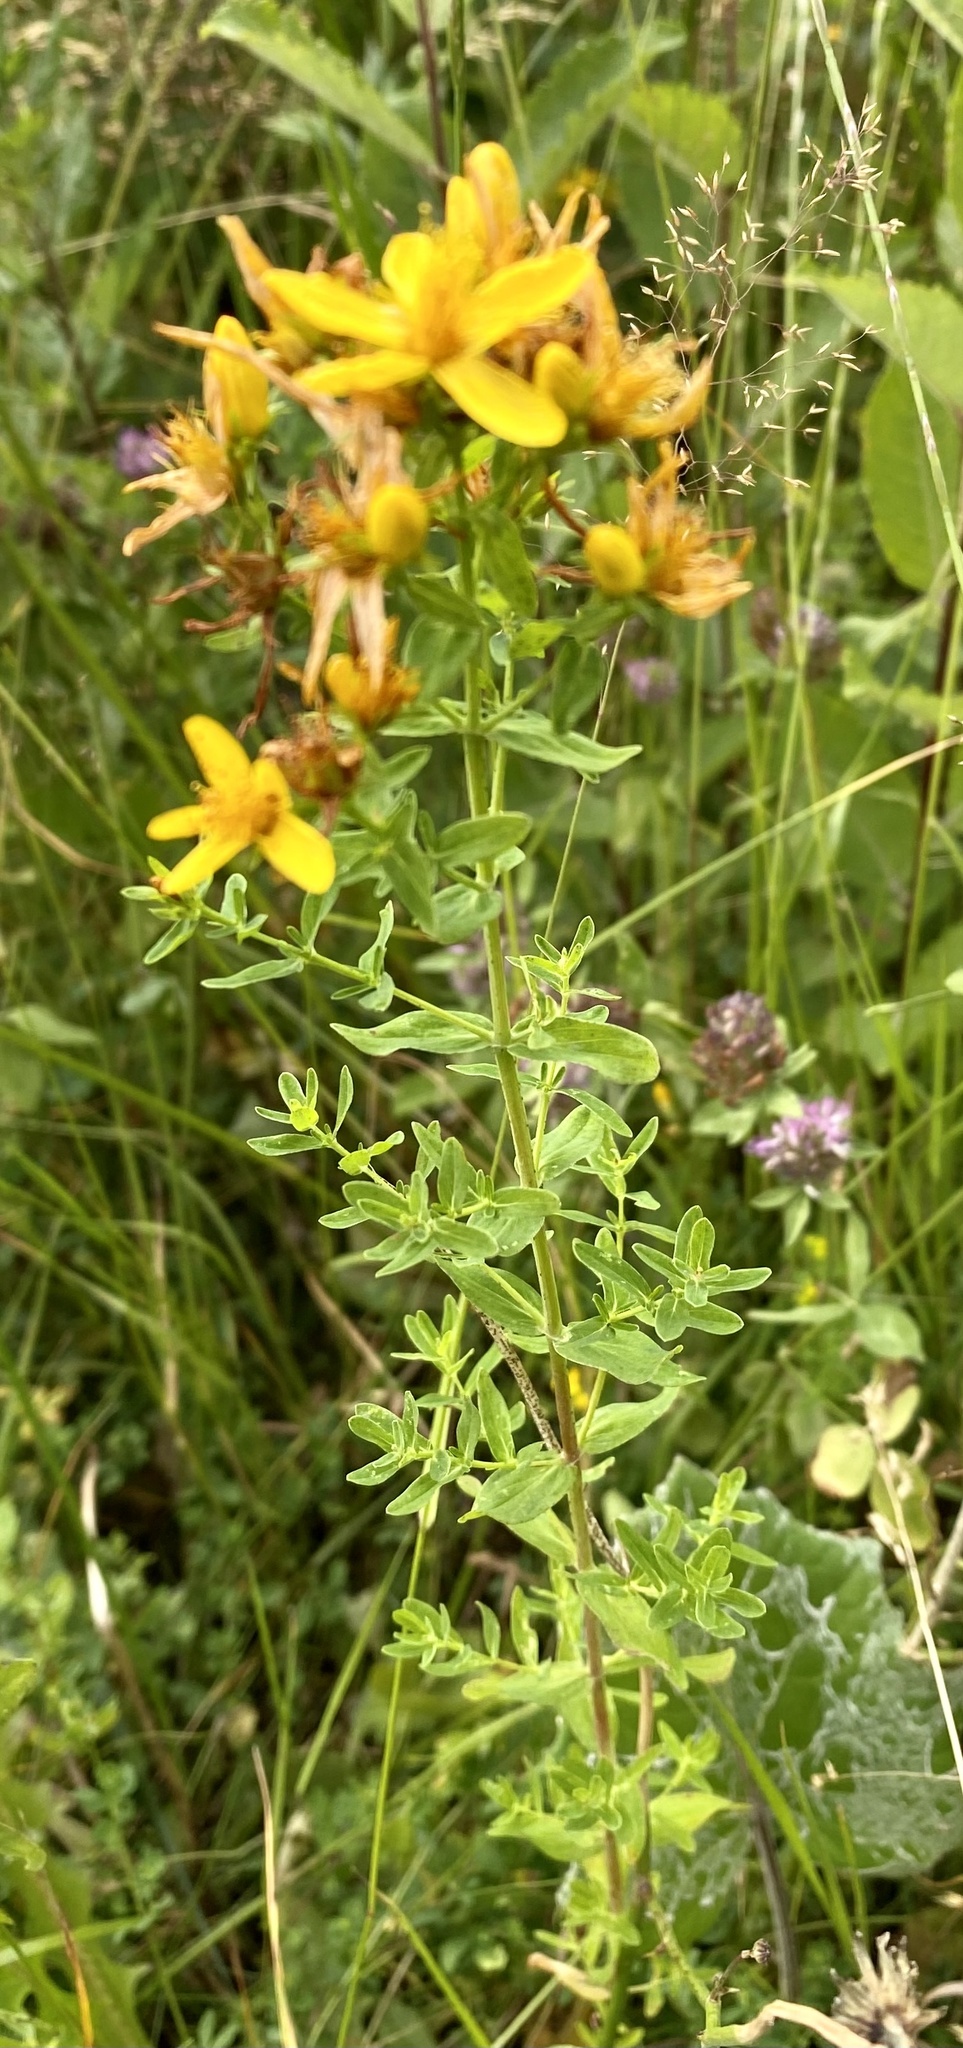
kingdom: Plantae
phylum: Tracheophyta
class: Magnoliopsida
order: Malpighiales
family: Hypericaceae
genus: Hypericum
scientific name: Hypericum perforatum
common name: Common st. johnswort
